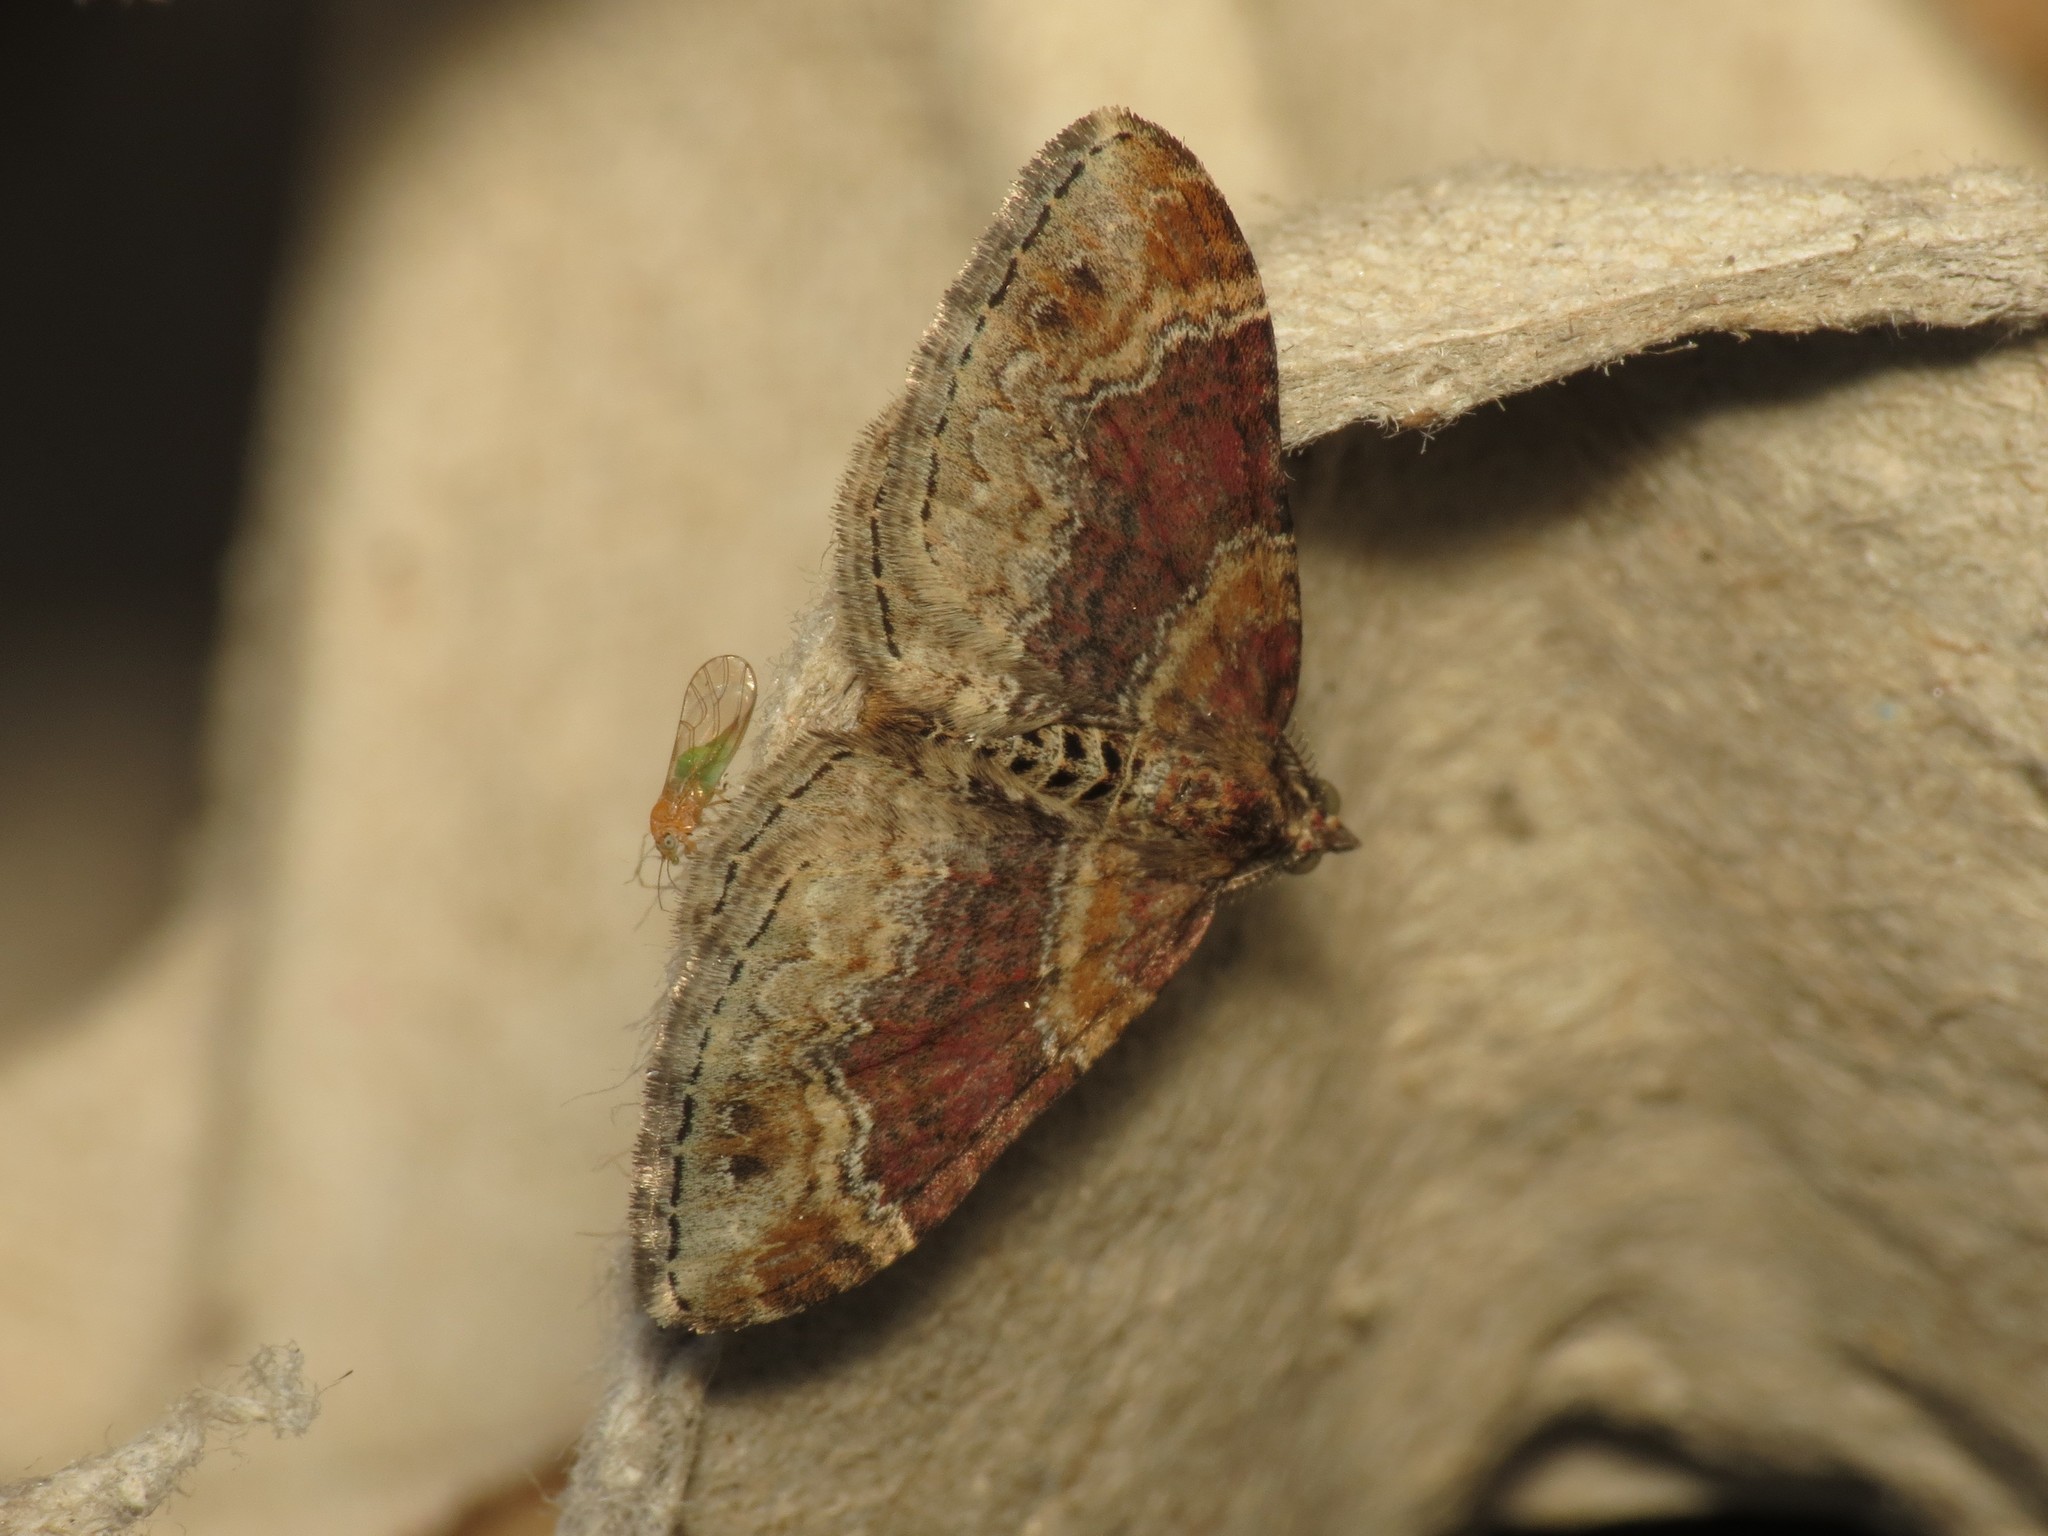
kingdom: Animalia
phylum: Arthropoda
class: Insecta
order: Lepidoptera
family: Geometridae
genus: Xanthorhoe
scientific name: Xanthorhoe spadicearia
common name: Red twin-spot carpet
